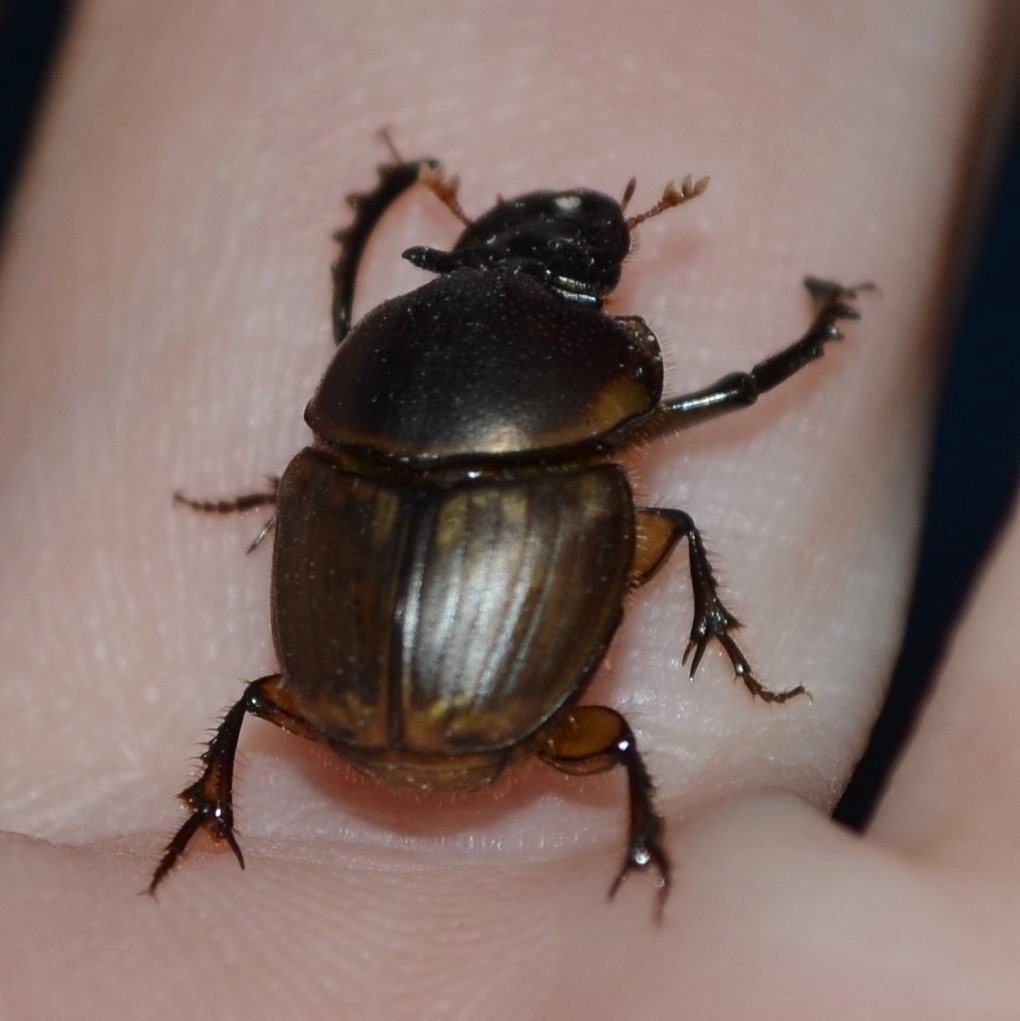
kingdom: Animalia
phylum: Arthropoda
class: Insecta
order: Coleoptera
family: Scarabaeidae
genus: Digitonthophagus
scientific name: Digitonthophagus gazella
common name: Brown dung beetle
